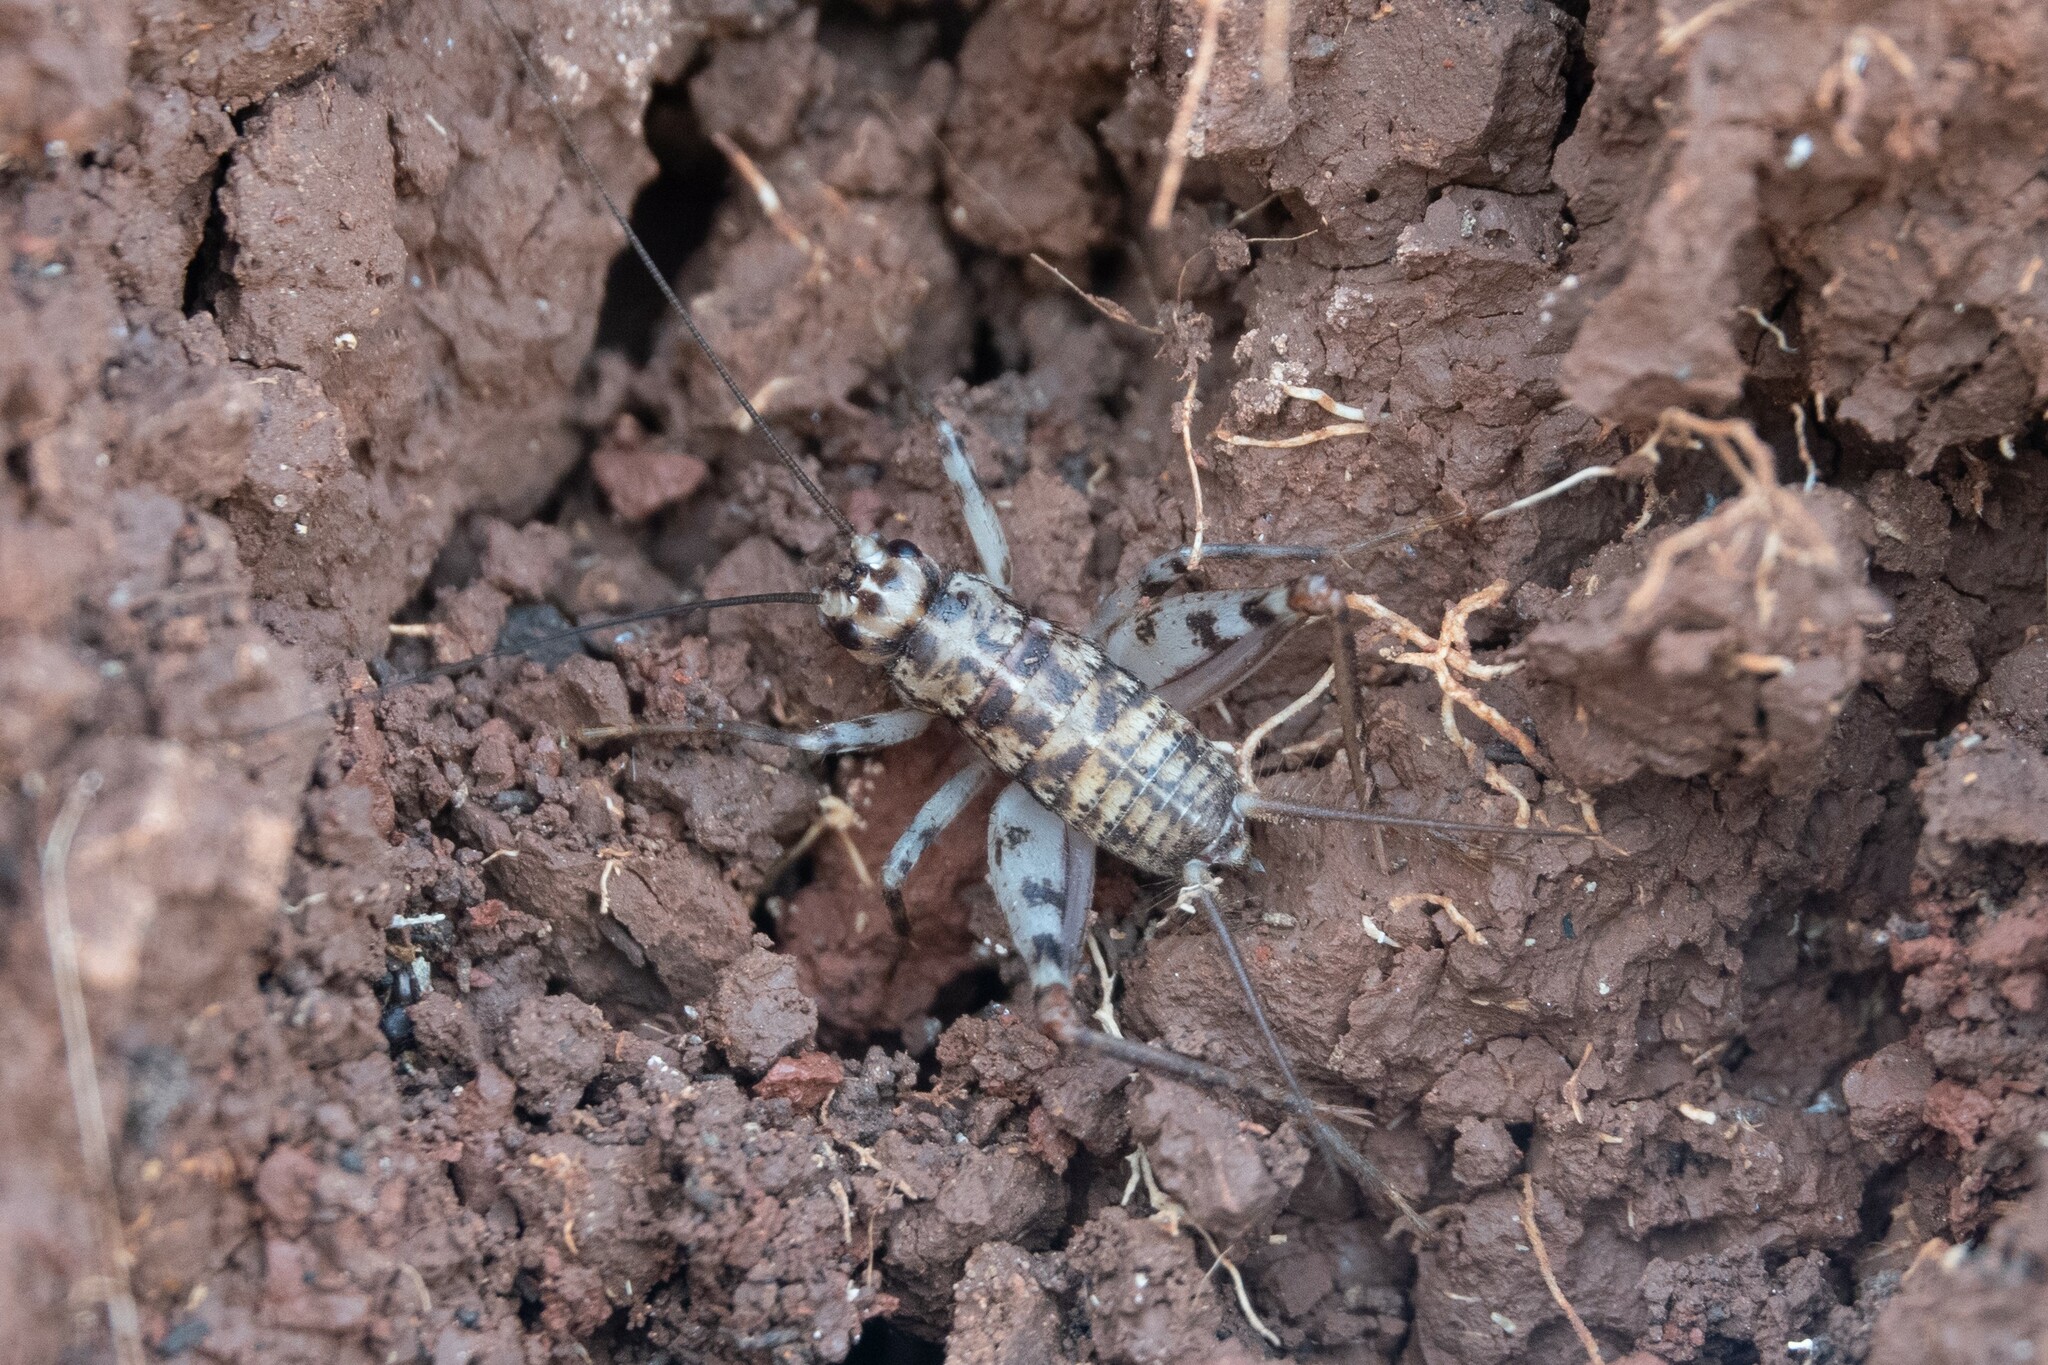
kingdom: Animalia
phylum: Arthropoda
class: Insecta
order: Orthoptera
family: Gryllidae
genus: Gryllomorpha
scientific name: Gryllomorpha dalmatina
